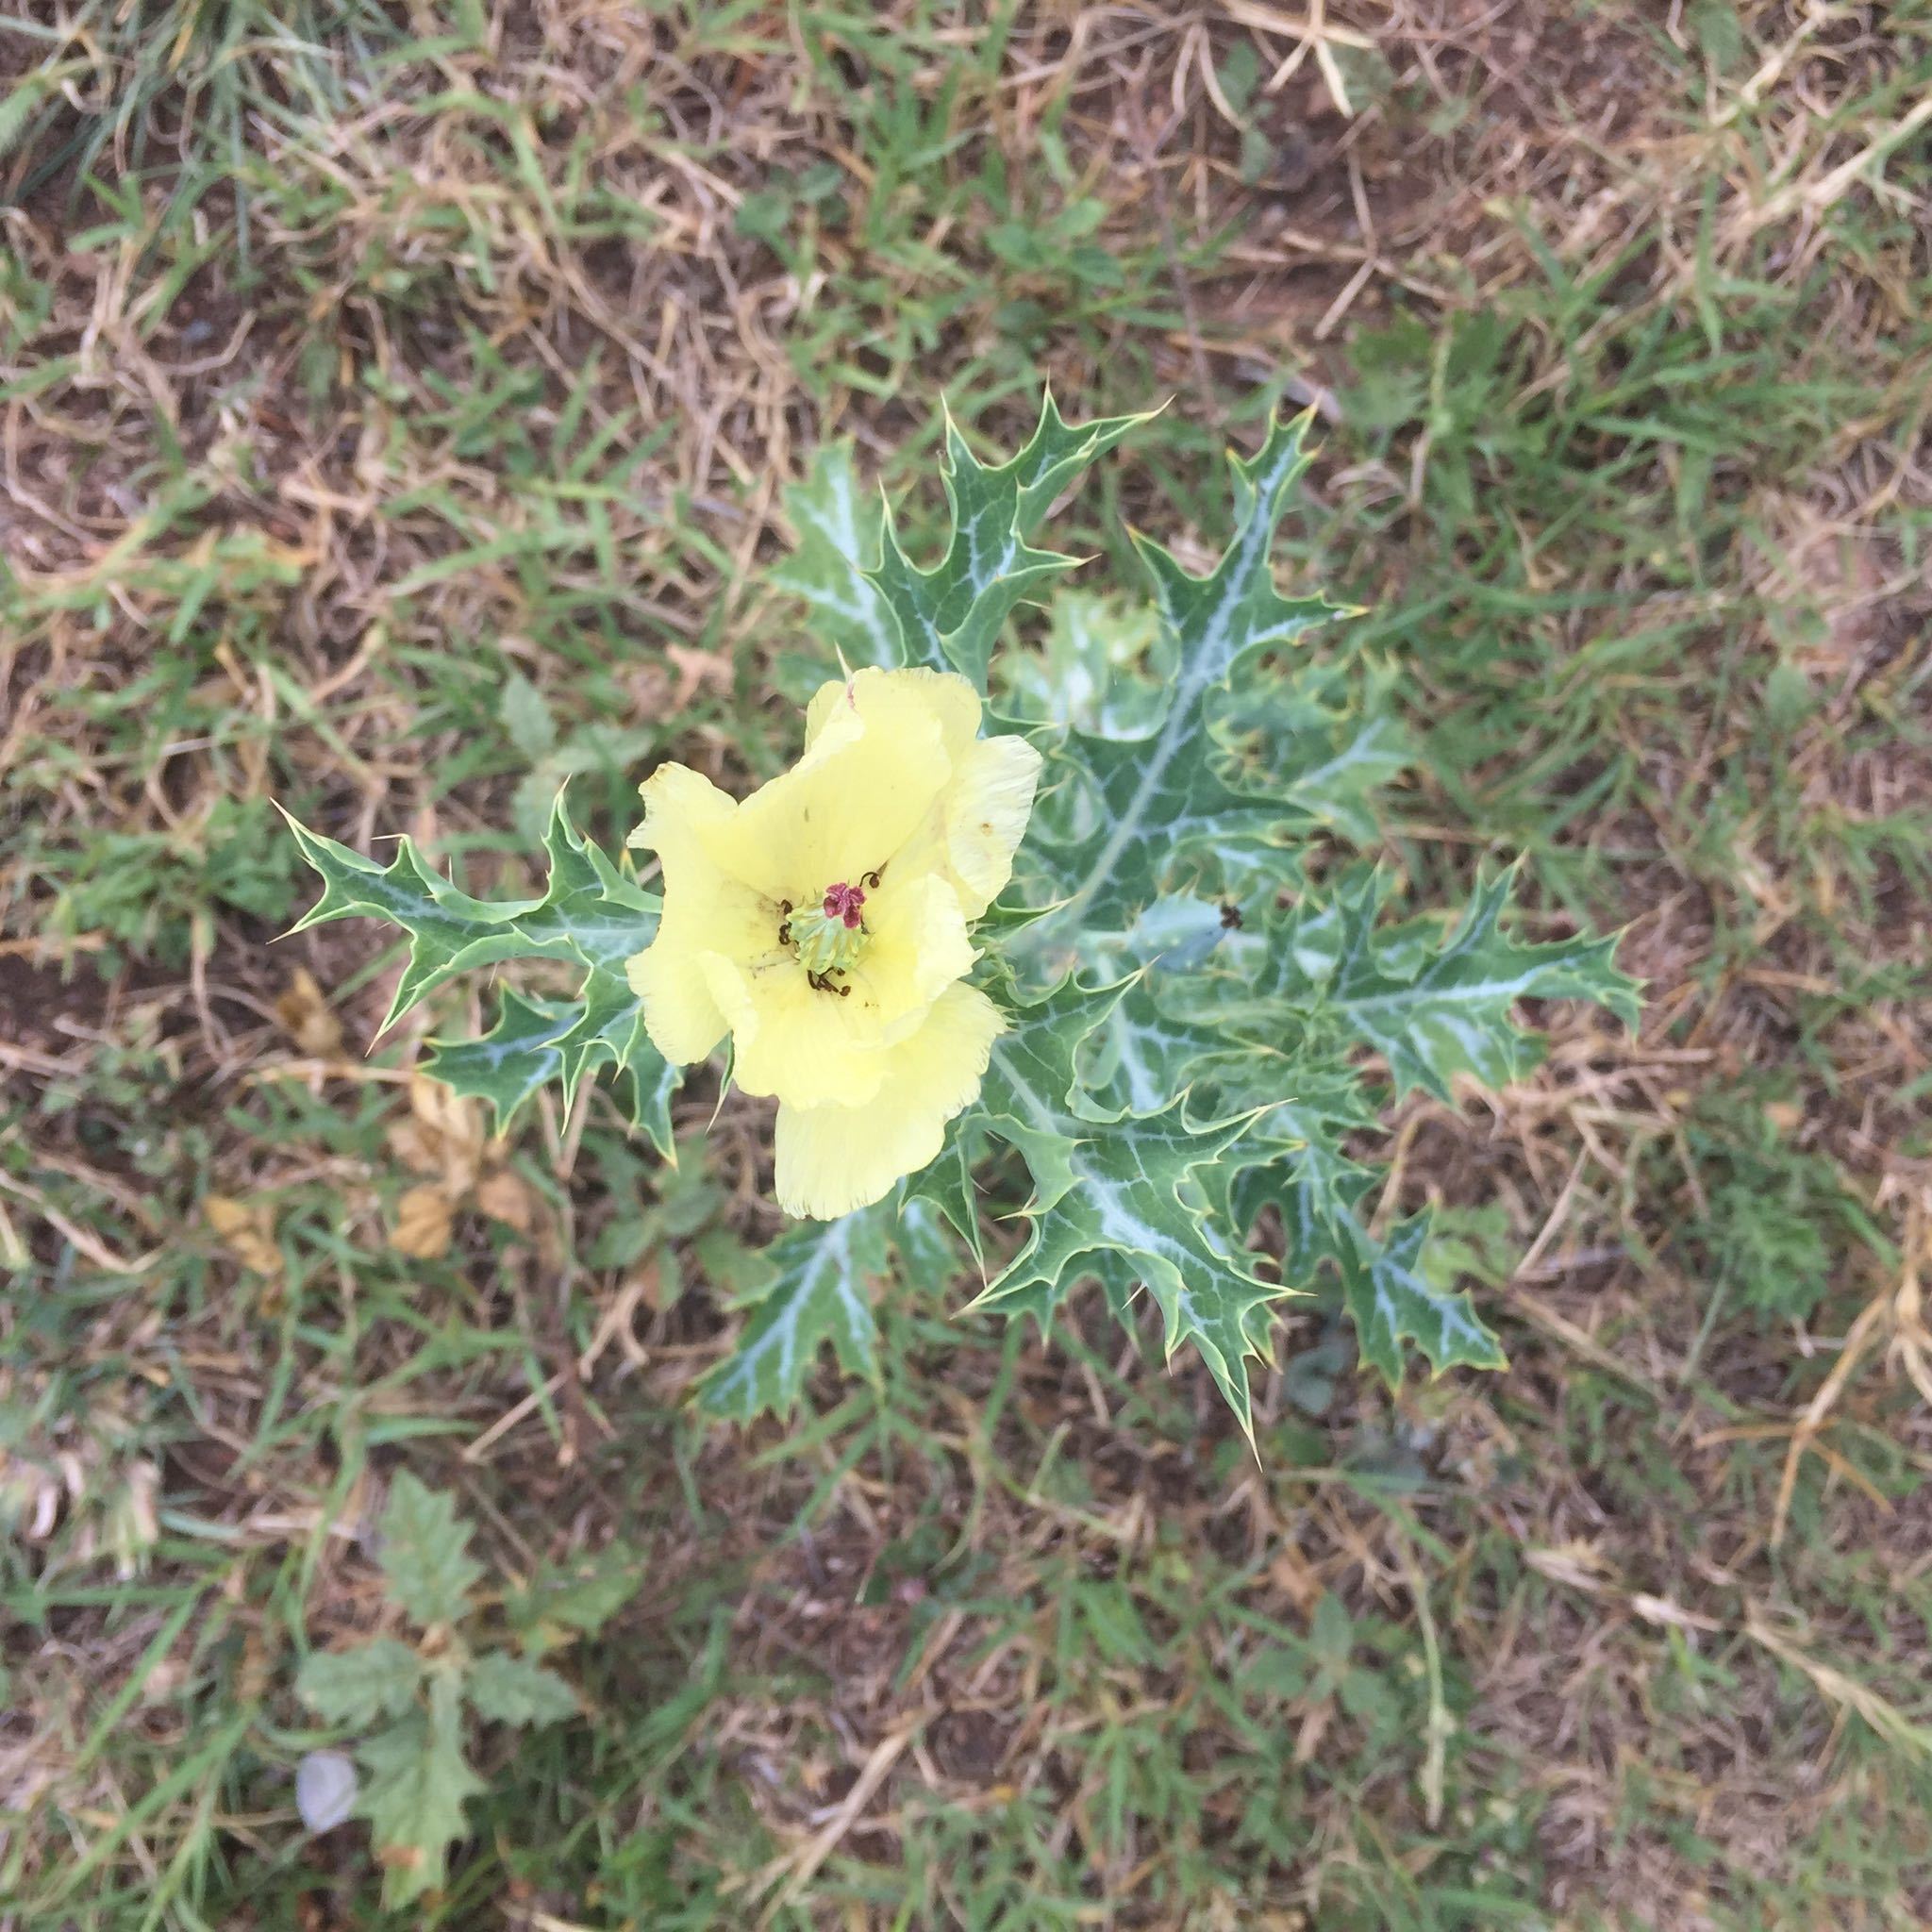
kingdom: Plantae
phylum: Tracheophyta
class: Magnoliopsida
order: Ranunculales
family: Papaveraceae
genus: Argemone
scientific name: Argemone subfusiformis
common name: American-poppy
